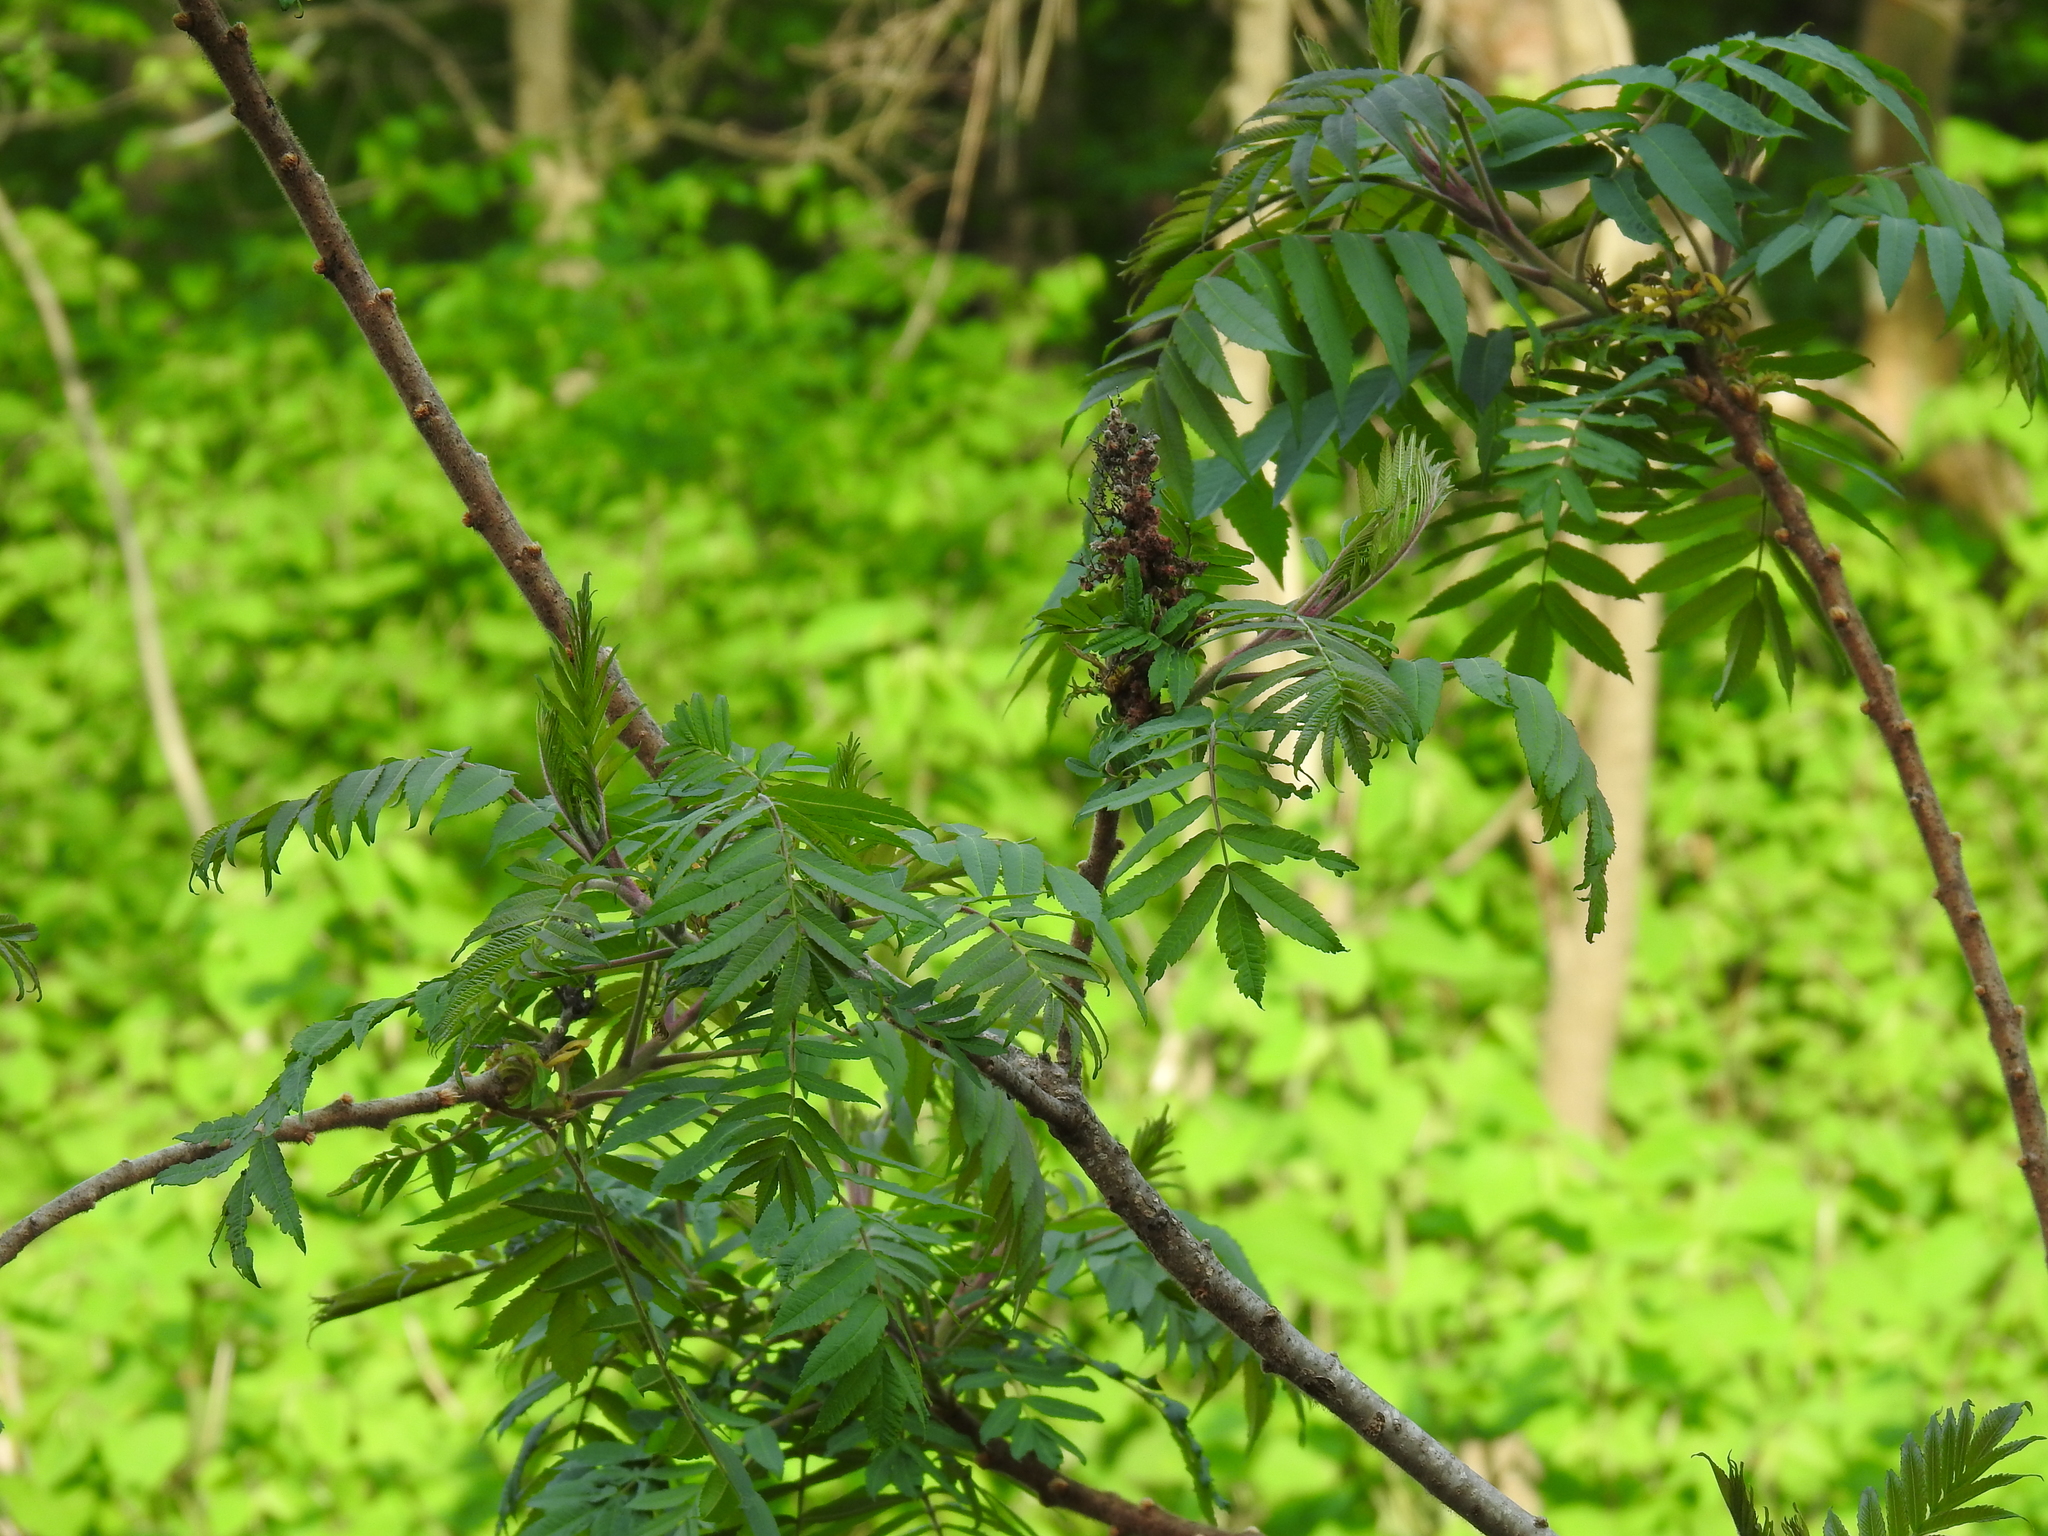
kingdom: Plantae
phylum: Tracheophyta
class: Magnoliopsida
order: Sapindales
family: Anacardiaceae
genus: Rhus
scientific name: Rhus typhina
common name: Staghorn sumac
